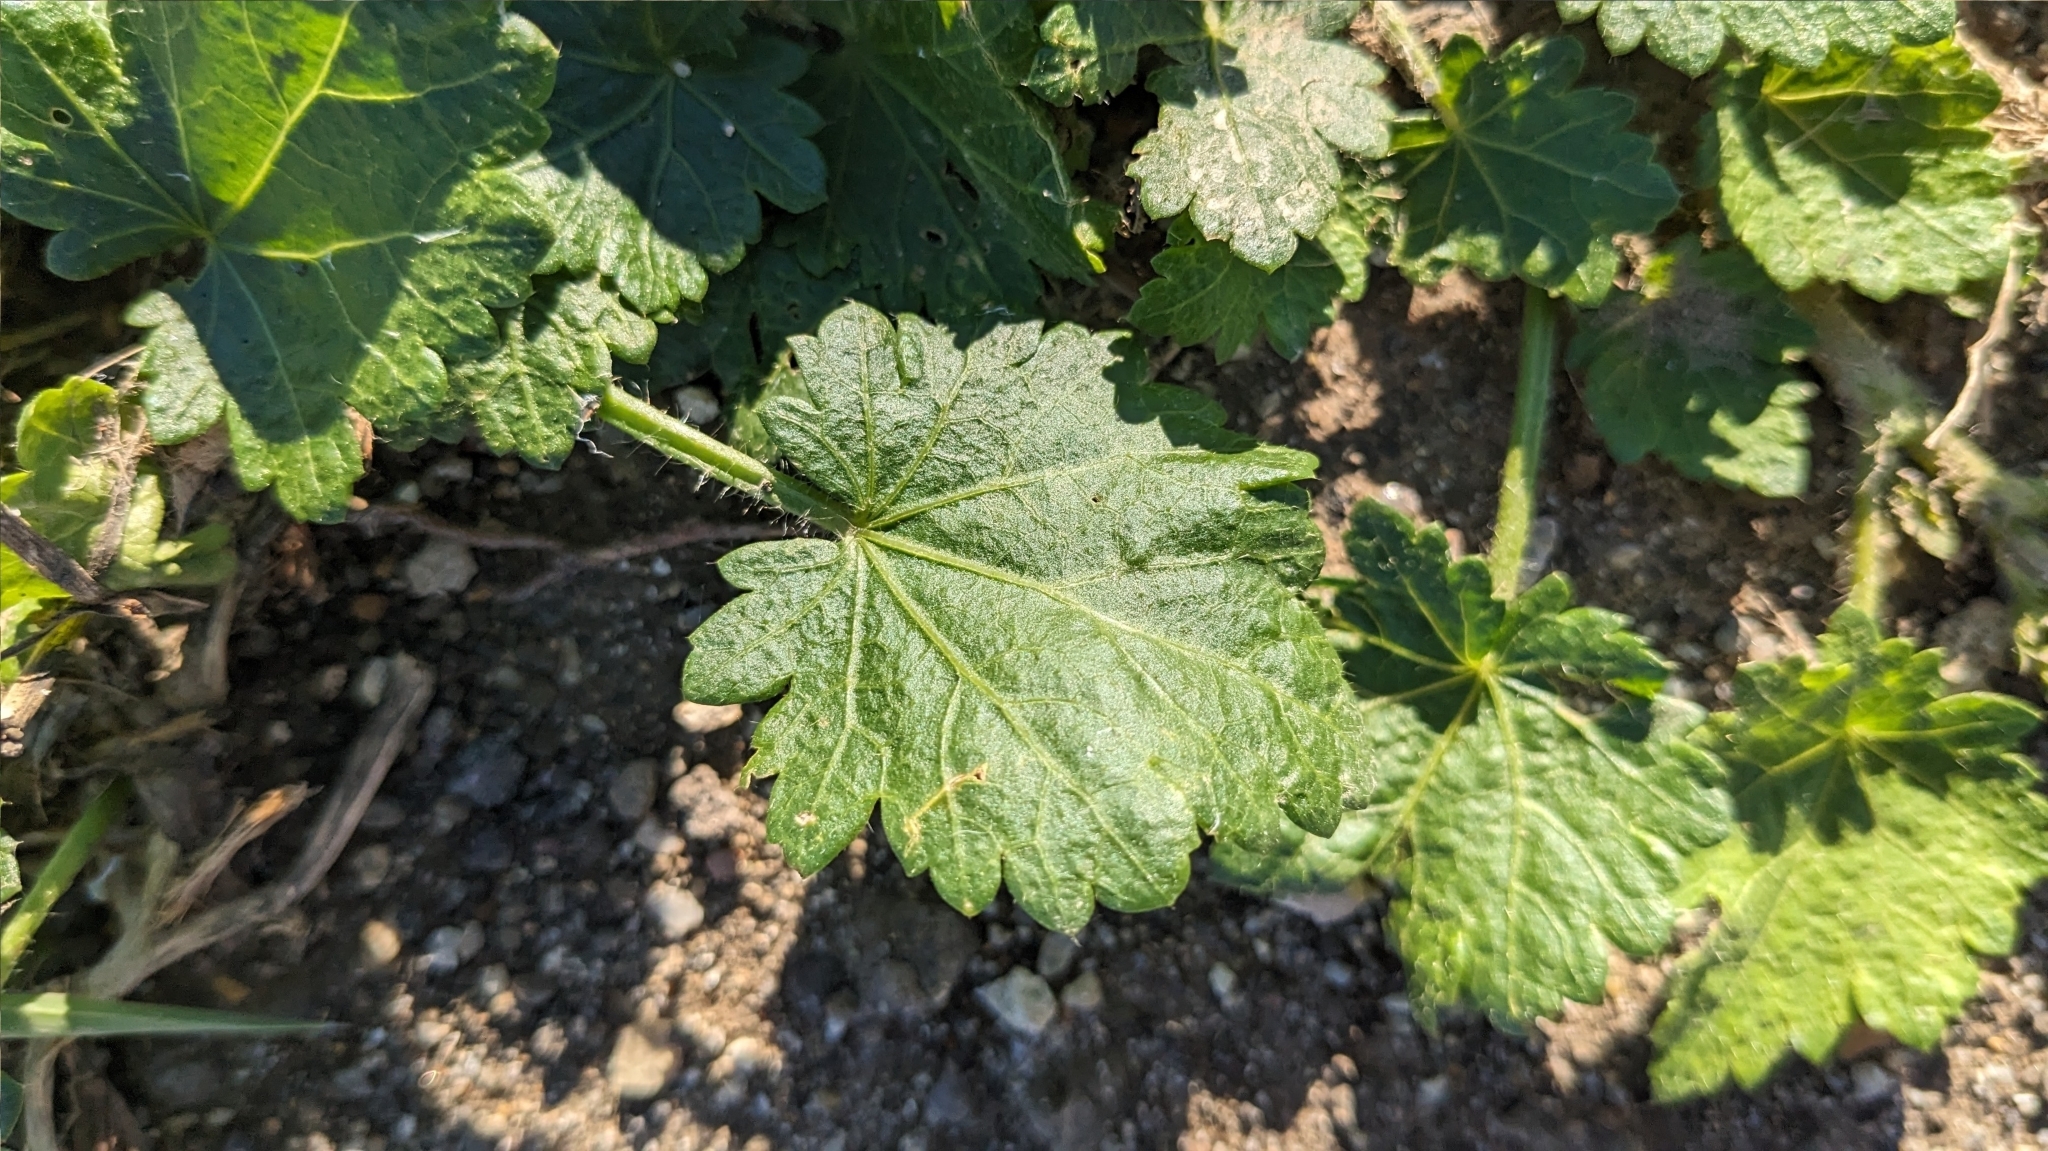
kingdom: Plantae
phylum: Tracheophyta
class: Magnoliopsida
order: Malvales
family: Malvaceae
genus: Modiola
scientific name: Modiola caroliniana
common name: Carolina bristlemallow
